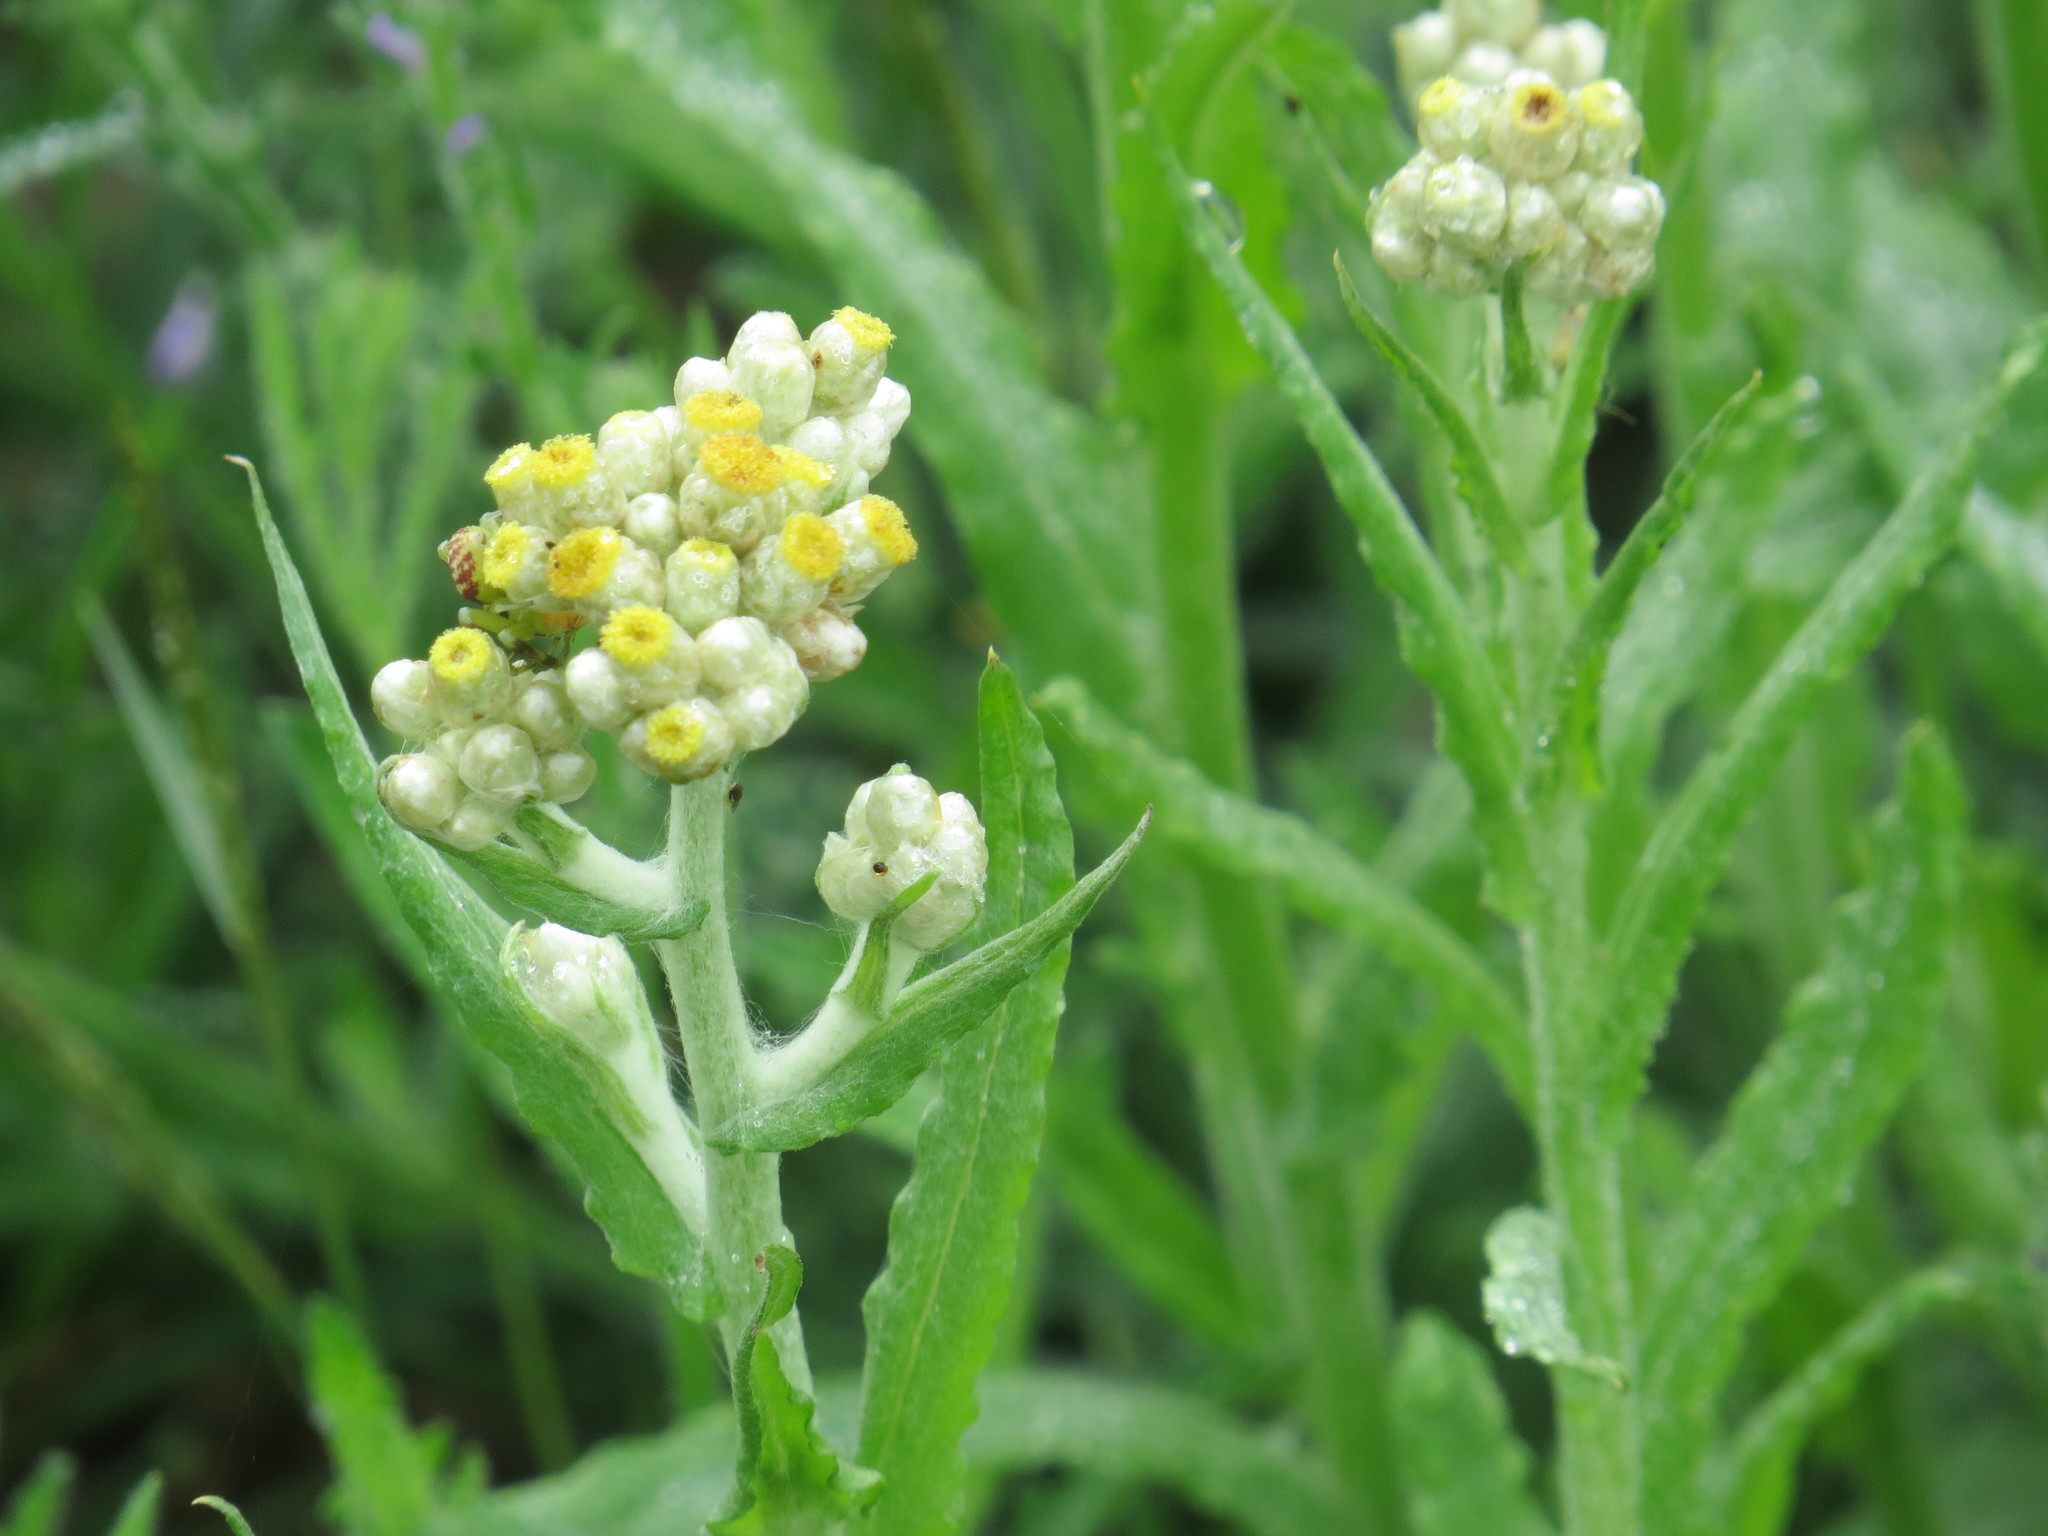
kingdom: Plantae
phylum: Tracheophyta
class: Magnoliopsida
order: Asterales
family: Asteraceae
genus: Pseudognaphalium
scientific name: Pseudognaphalium stramineum
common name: Cotton-batting-plant
